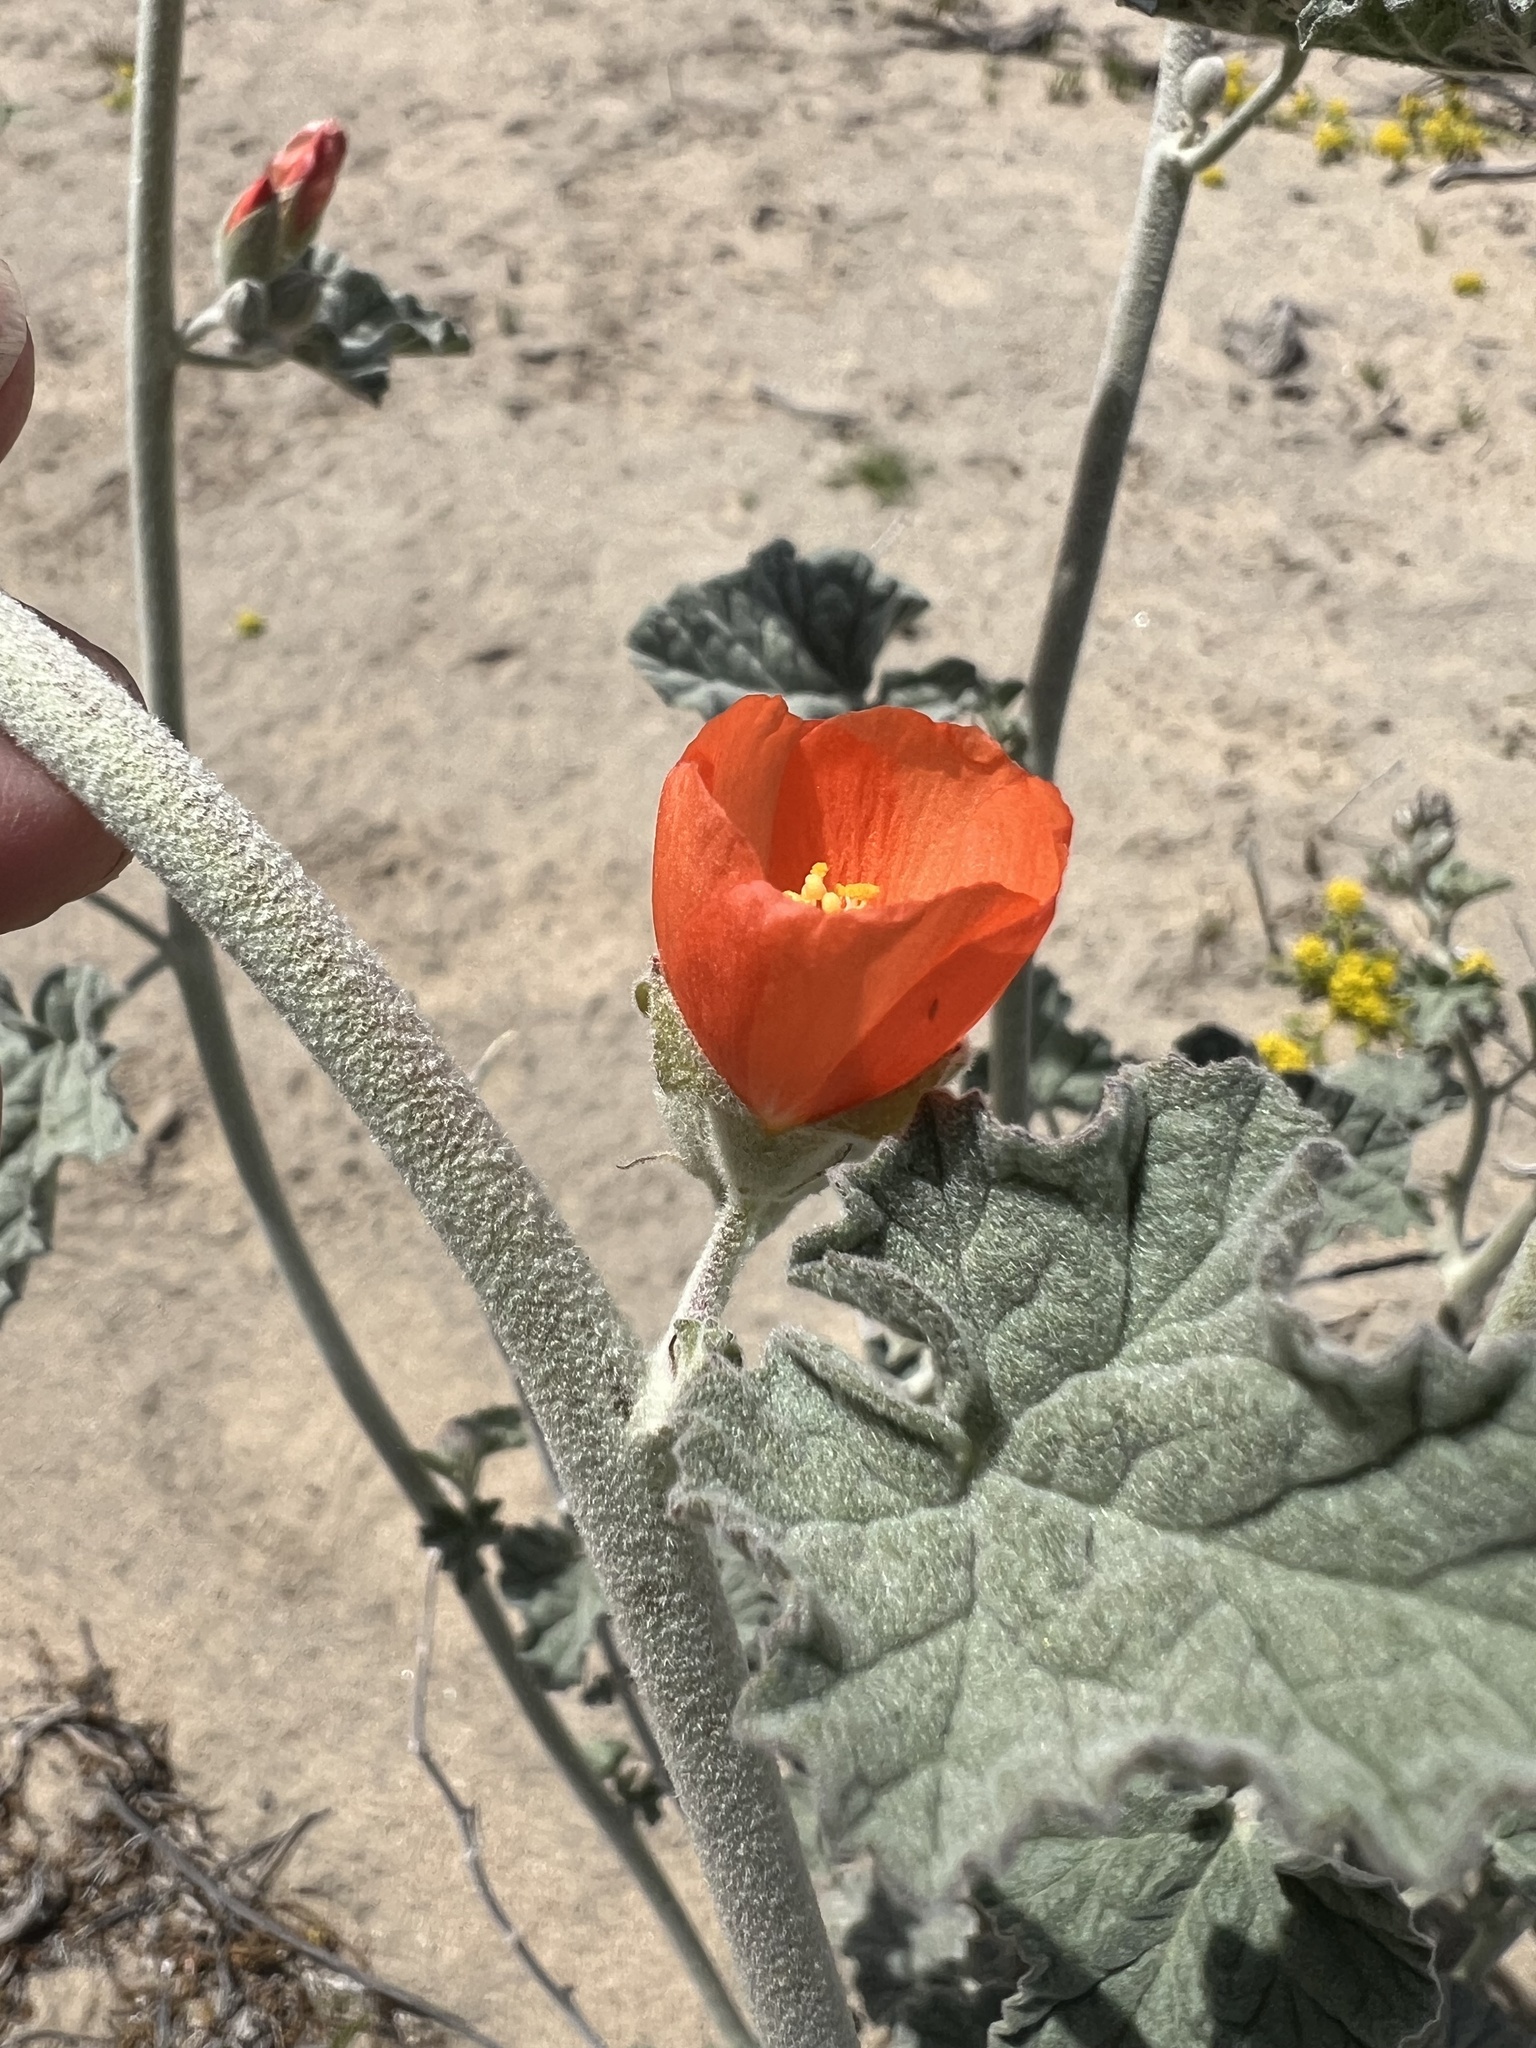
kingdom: Plantae
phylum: Tracheophyta
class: Magnoliopsida
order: Malvales
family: Malvaceae
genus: Sphaeralcea
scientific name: Sphaeralcea ambigua
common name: Apricot globe-mallow
